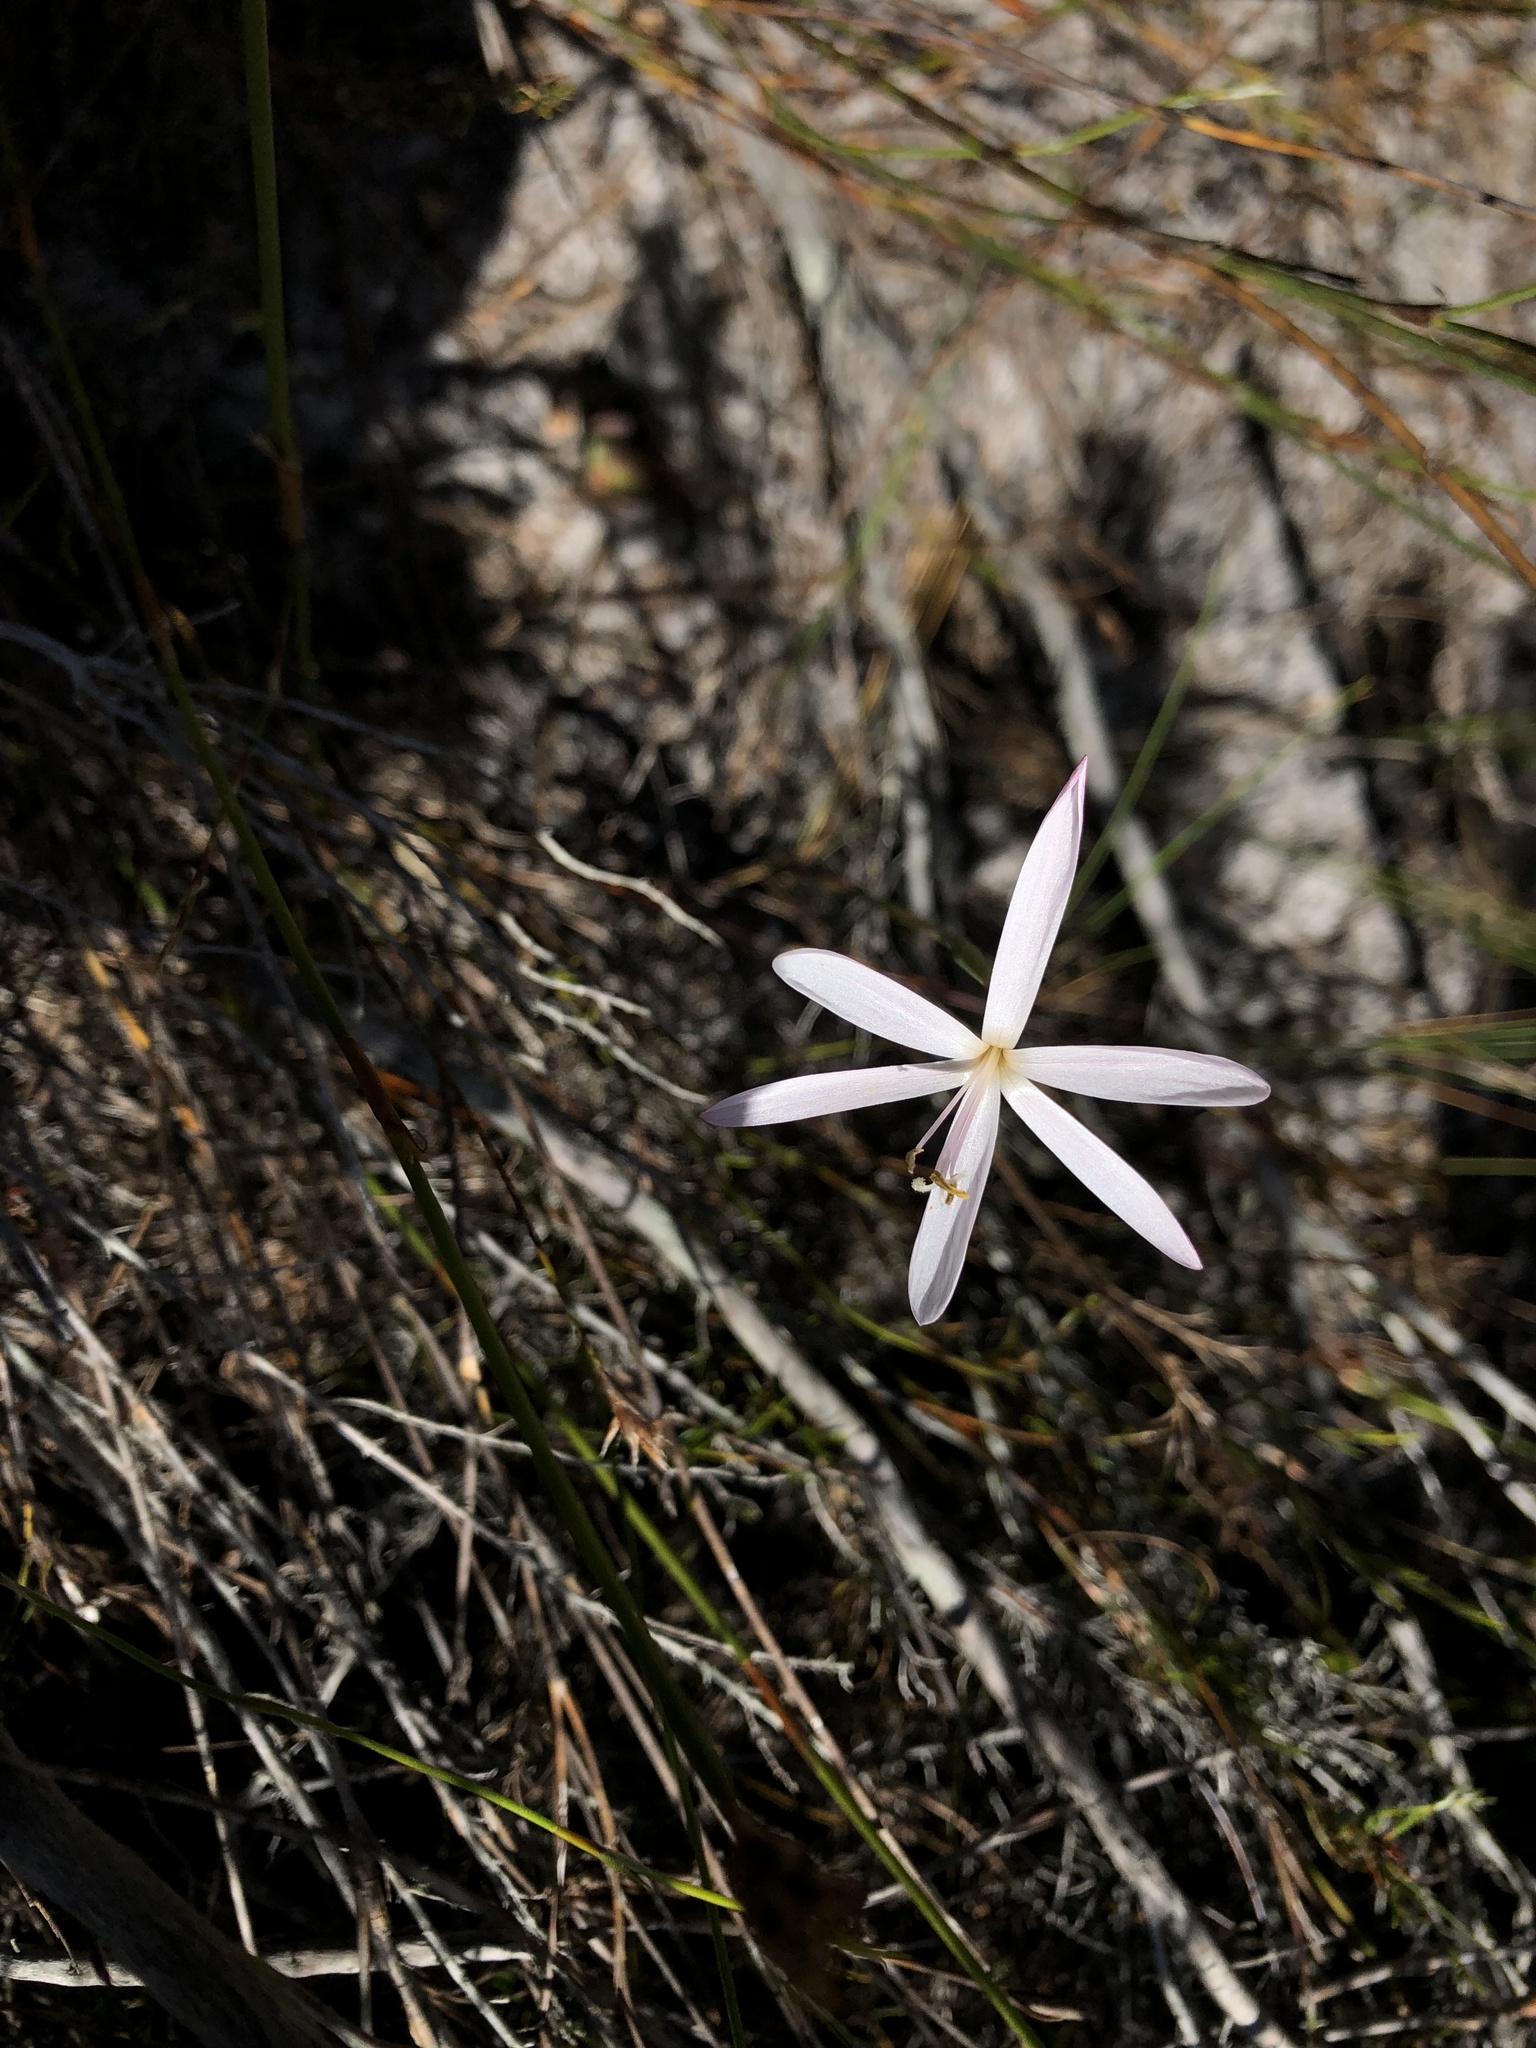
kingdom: Plantae
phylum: Tracheophyta
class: Liliopsida
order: Asparagales
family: Iridaceae
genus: Geissorhiza
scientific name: Geissorhiza tenella
